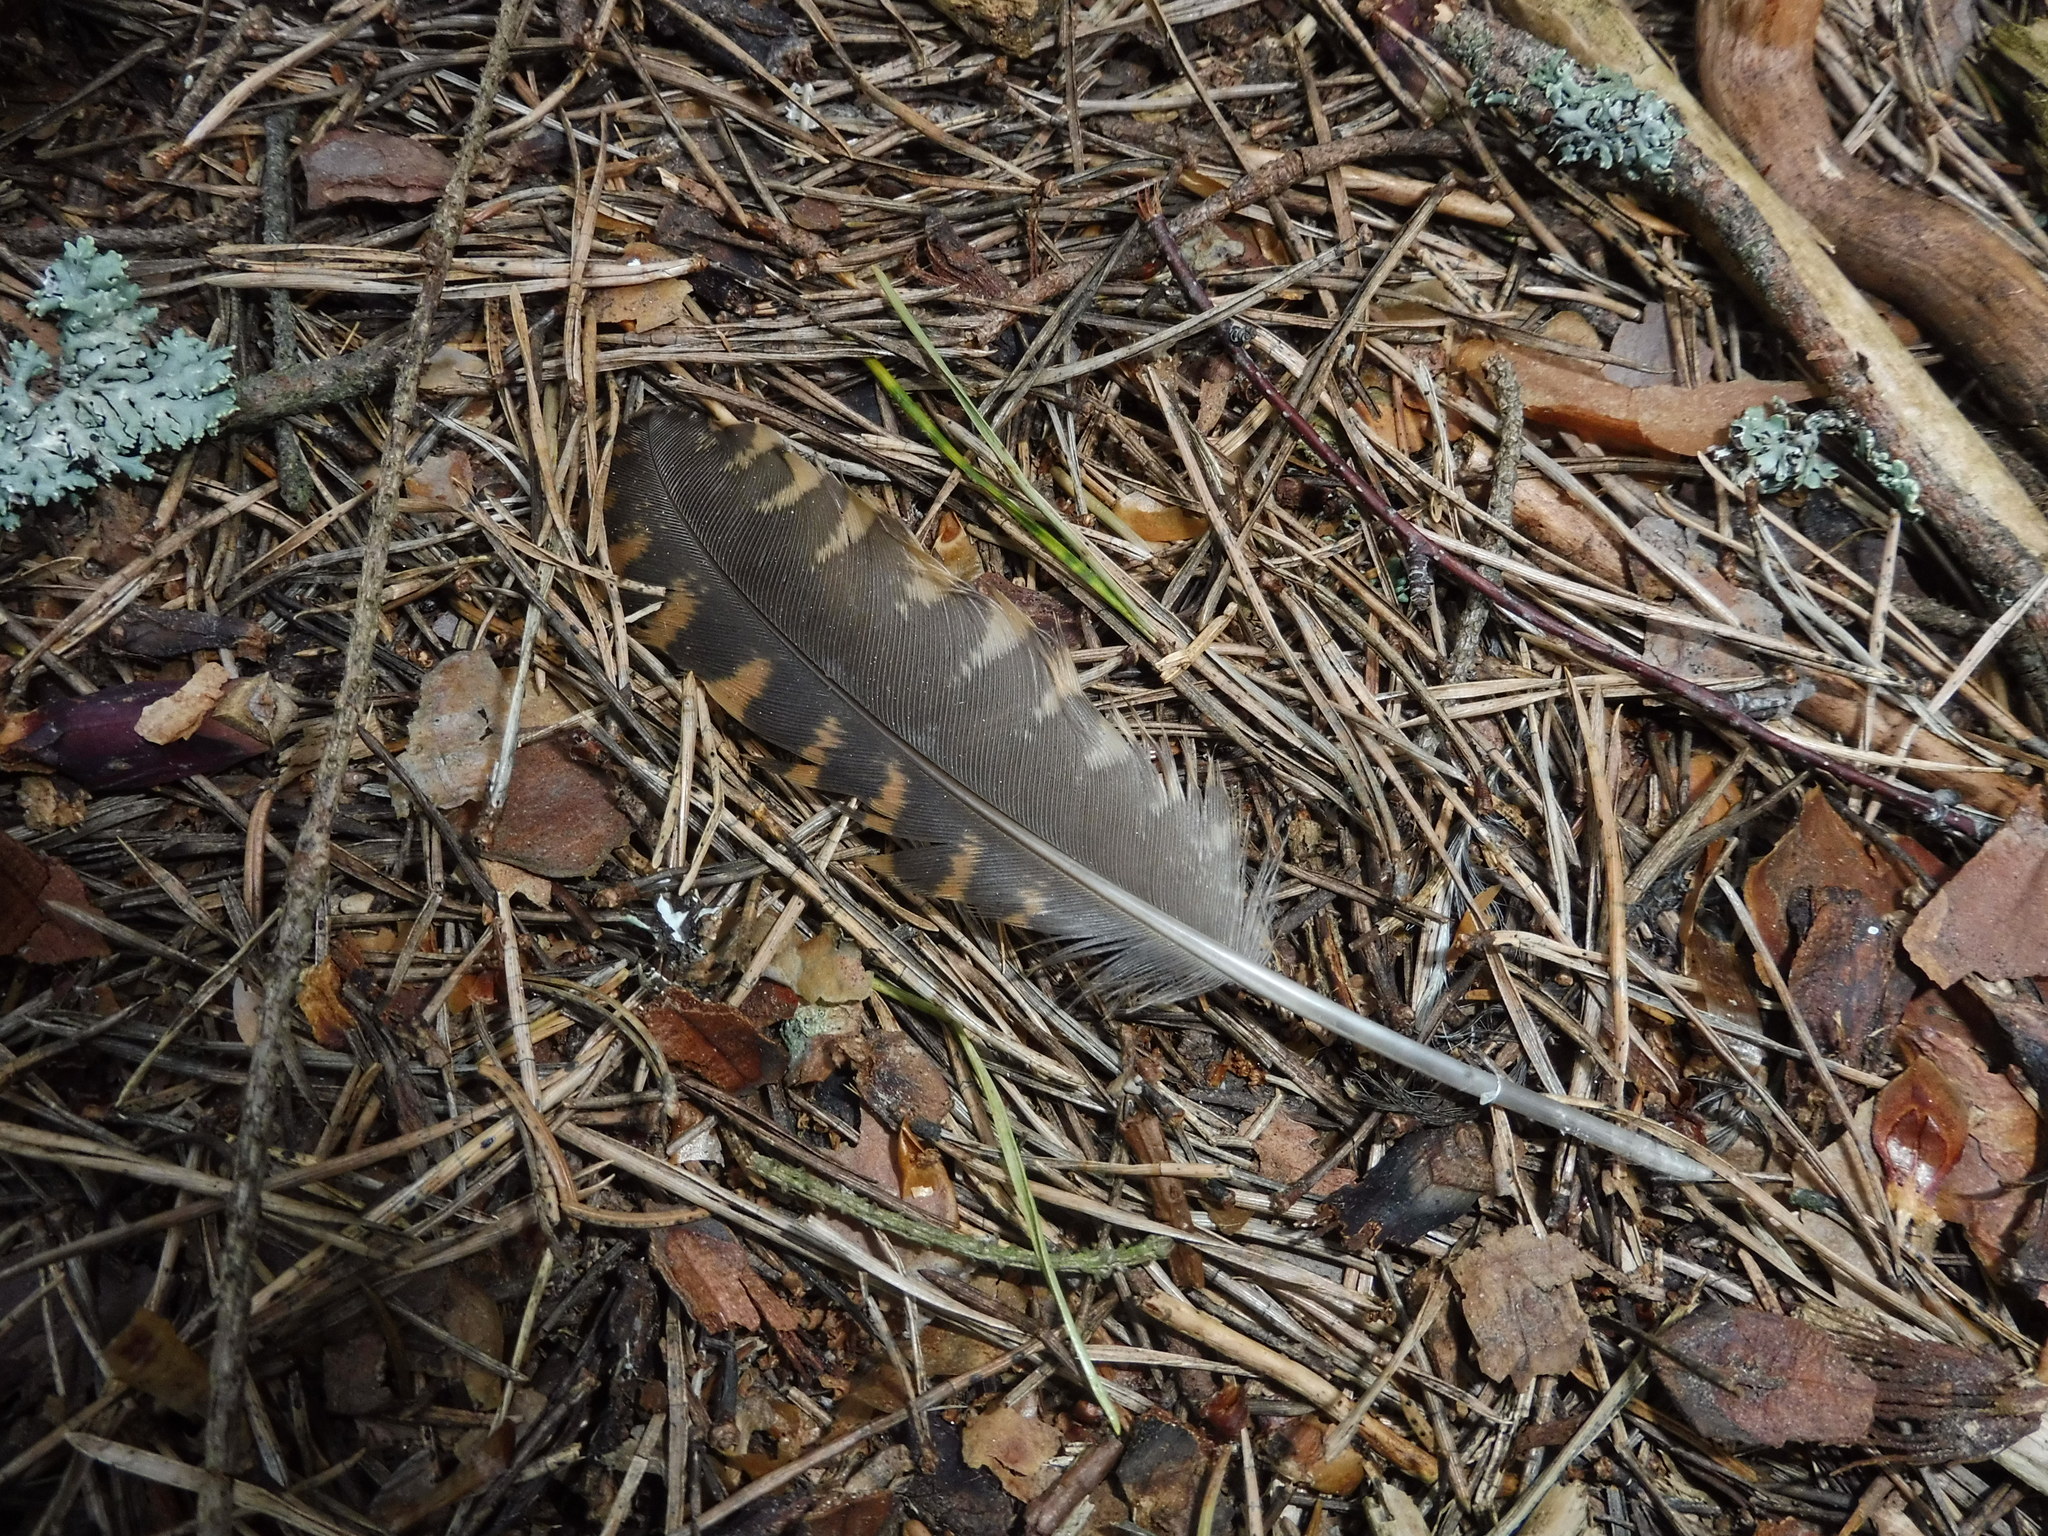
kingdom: Animalia
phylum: Chordata
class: Aves
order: Charadriiformes
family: Scolopacidae
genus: Scolopax
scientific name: Scolopax rusticola
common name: Eurasian woodcock
